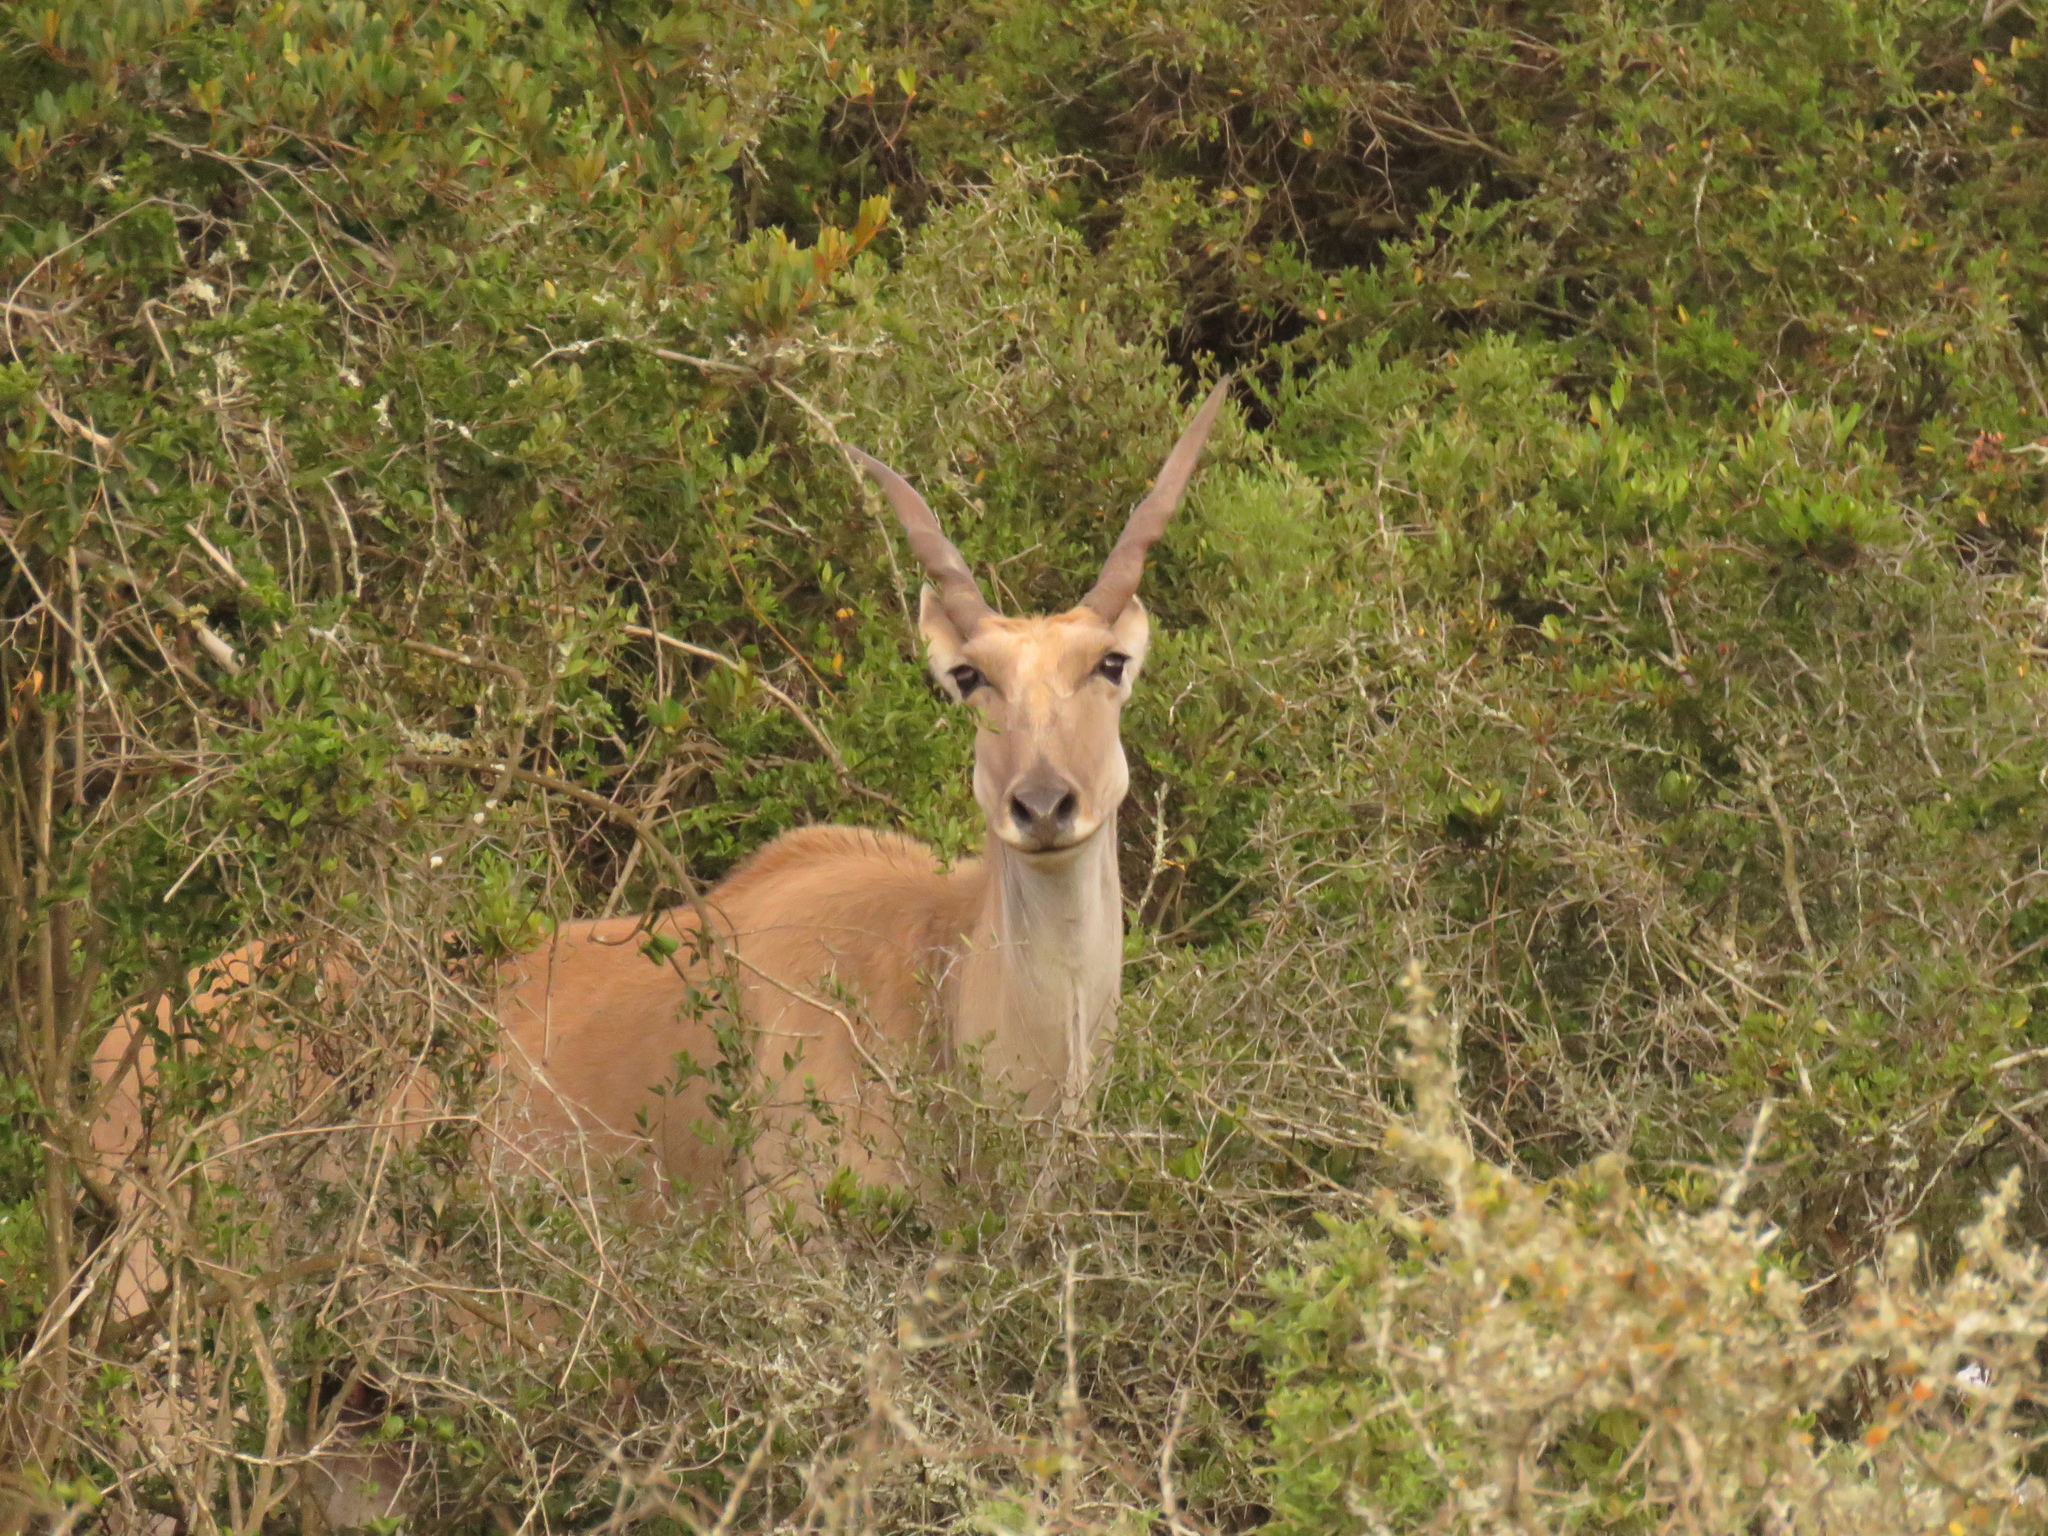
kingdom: Animalia
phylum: Chordata
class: Mammalia
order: Artiodactyla
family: Bovidae
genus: Taurotragus
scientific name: Taurotragus oryx
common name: Common eland
